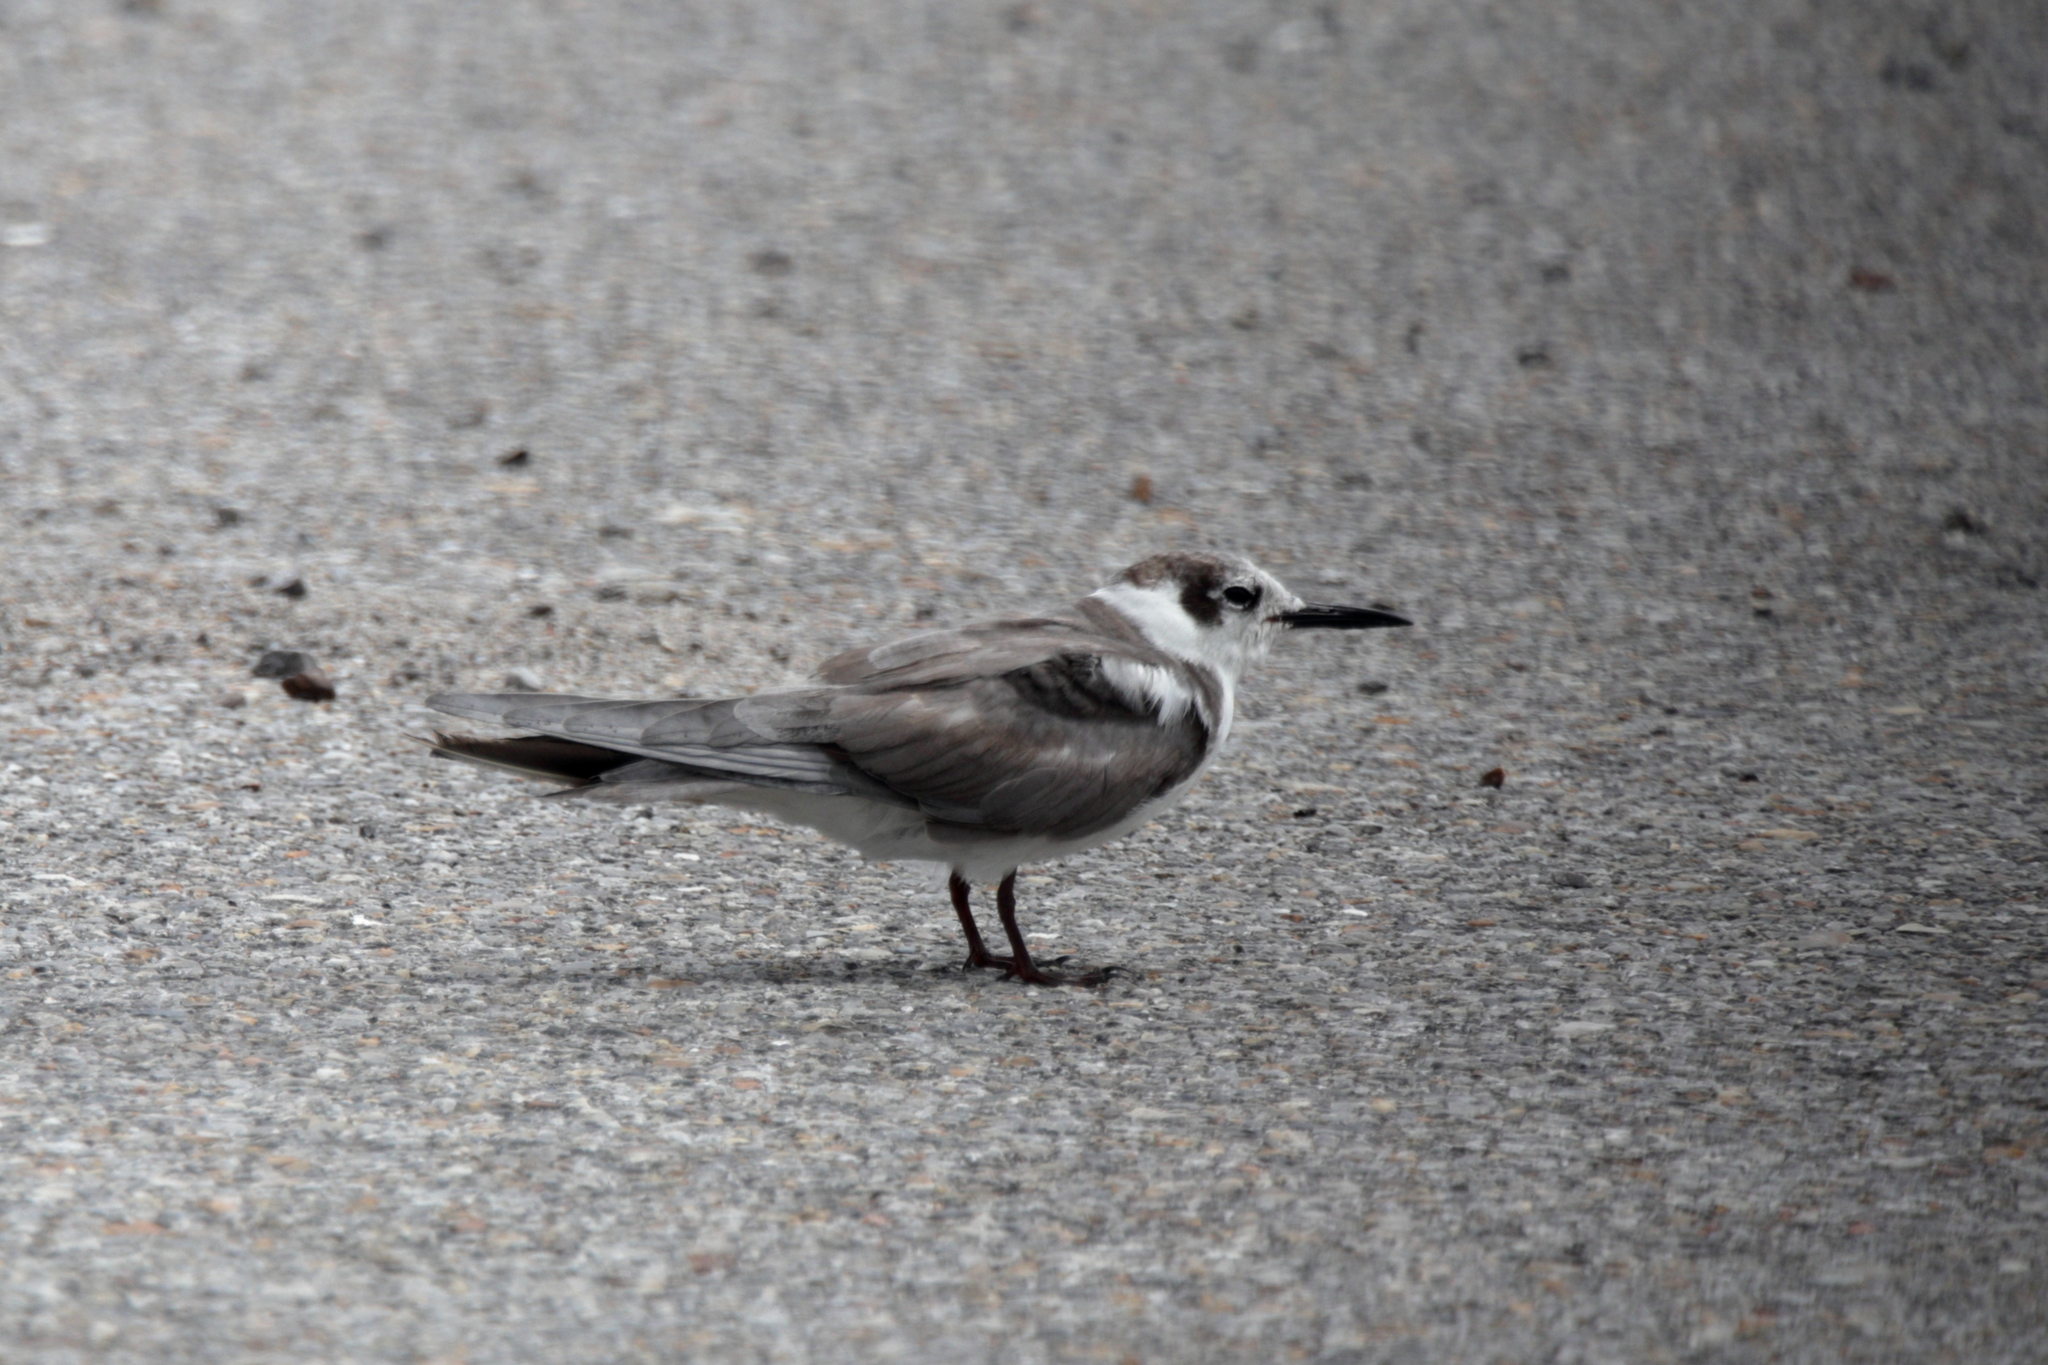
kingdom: Animalia
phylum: Chordata
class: Aves
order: Charadriiformes
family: Laridae
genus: Chlidonias
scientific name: Chlidonias niger
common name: Black tern
